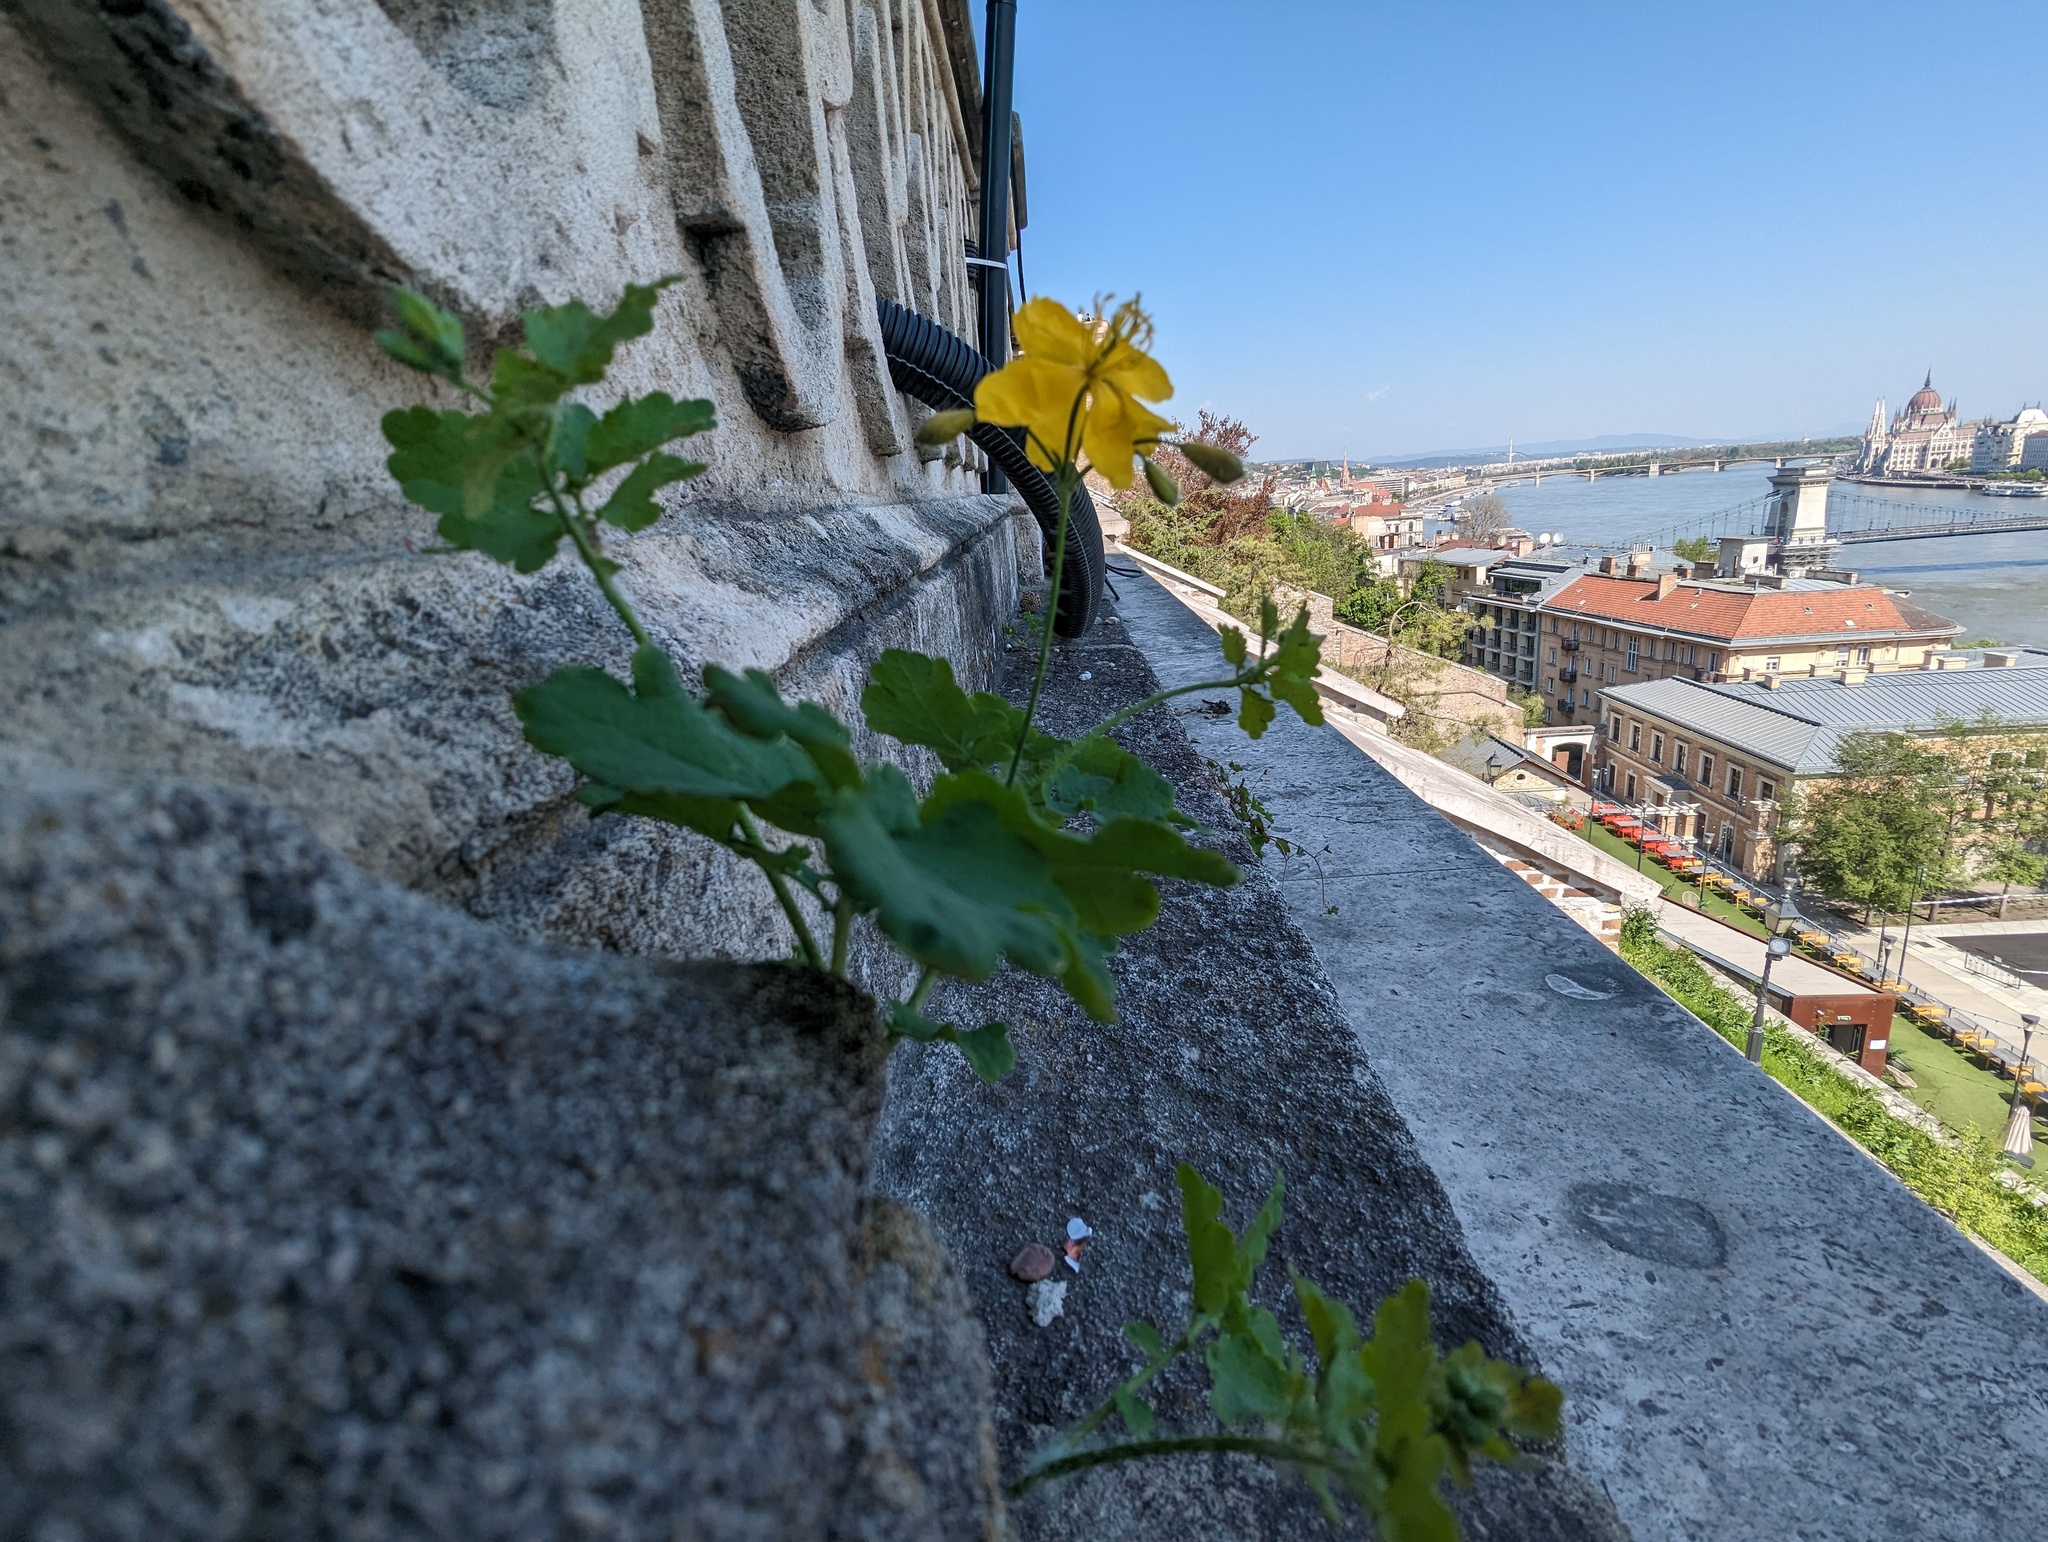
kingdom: Plantae
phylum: Tracheophyta
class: Magnoliopsida
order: Ranunculales
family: Papaveraceae
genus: Chelidonium
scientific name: Chelidonium majus
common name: Greater celandine
